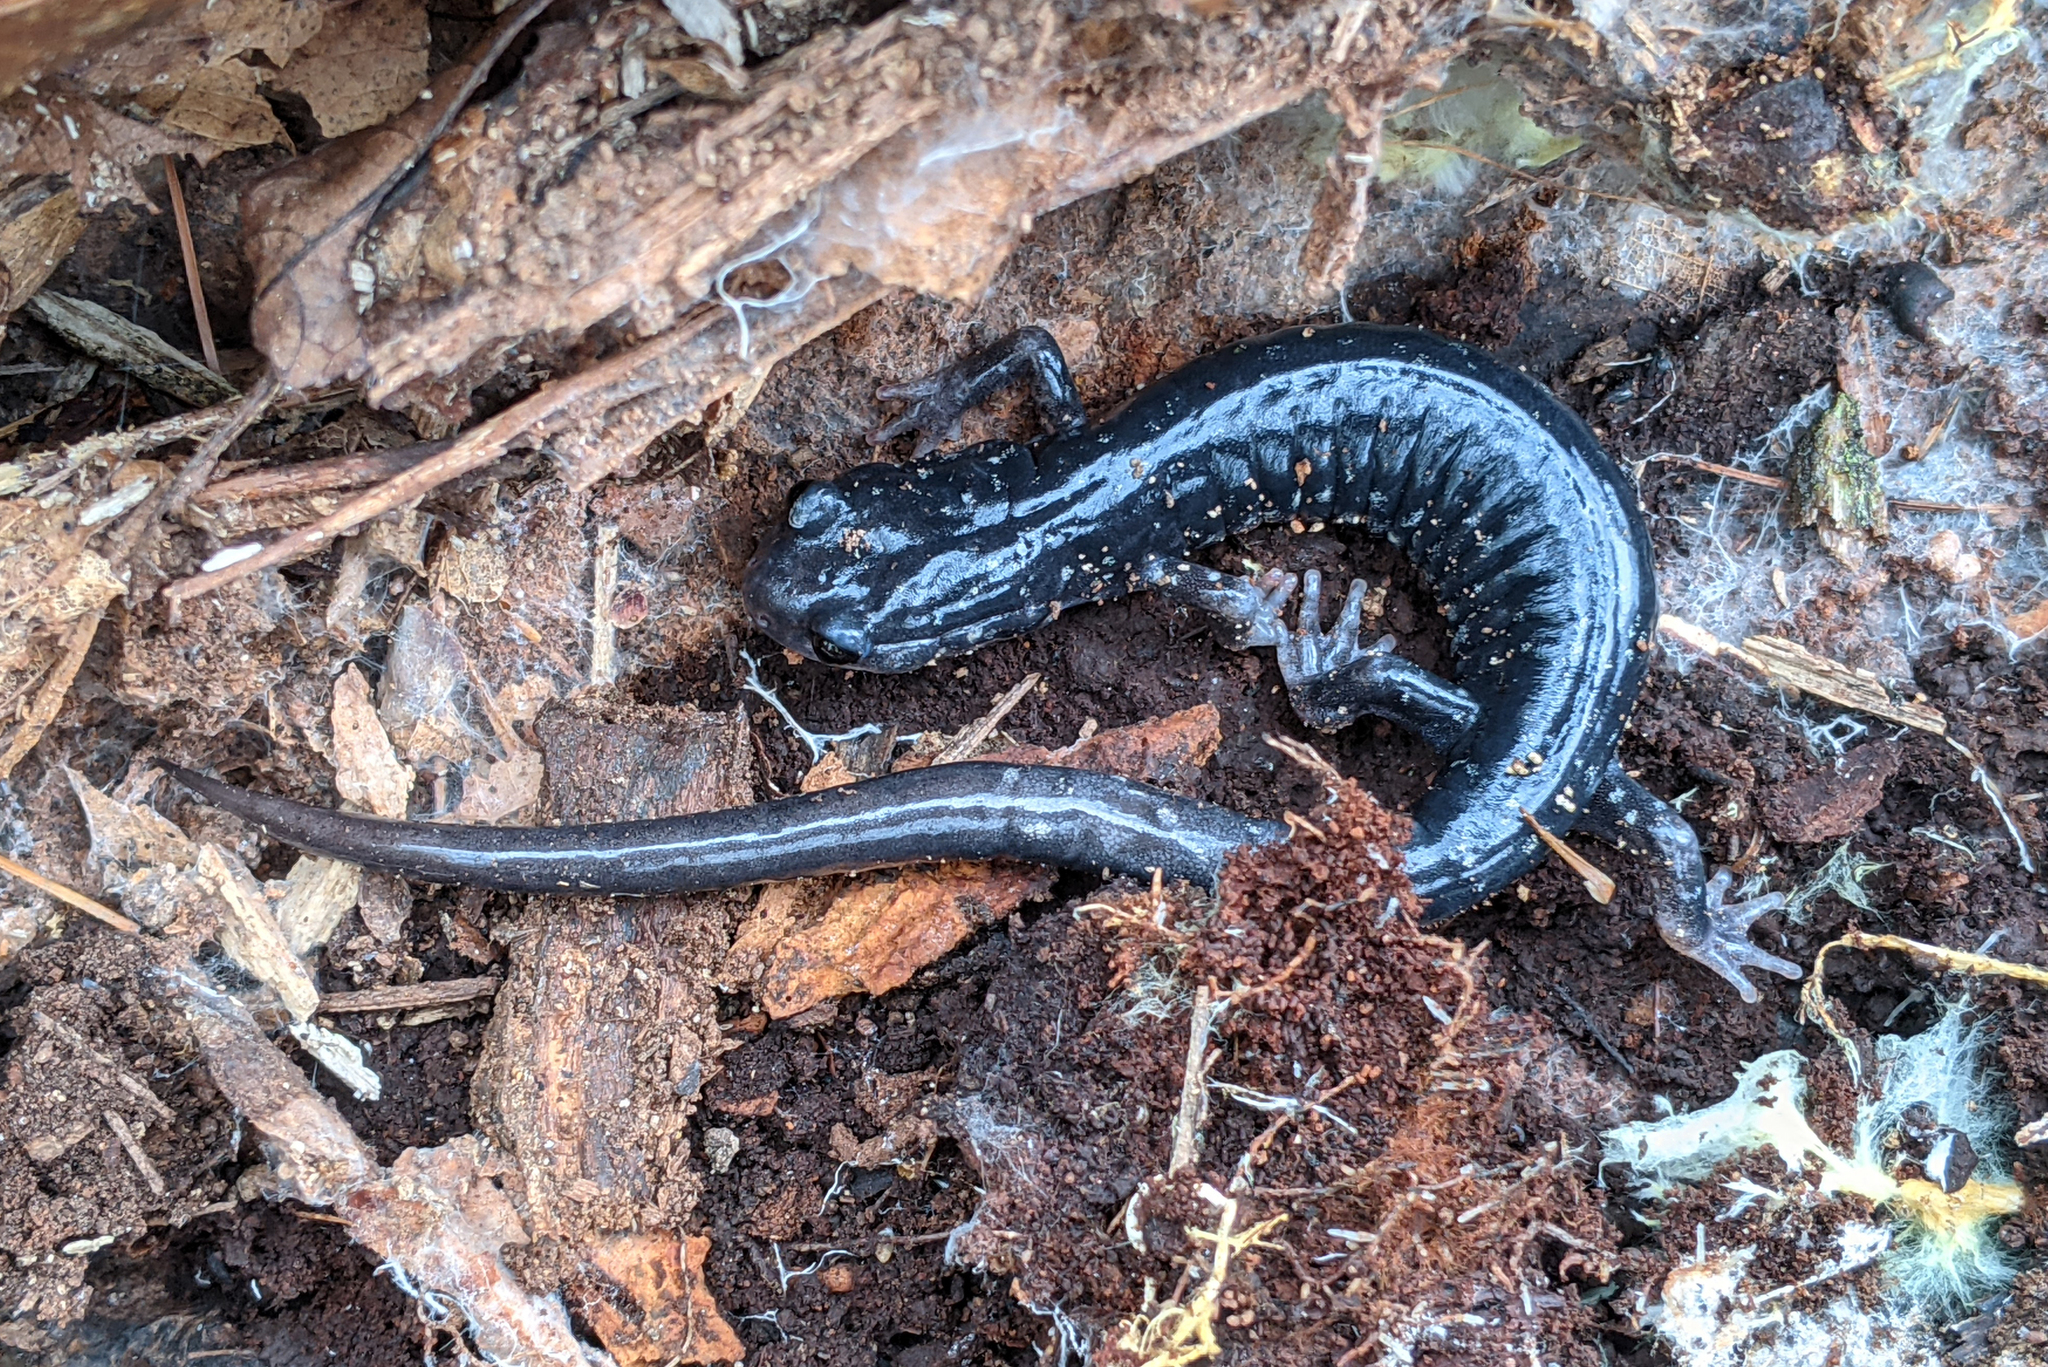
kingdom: Animalia
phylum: Chordata
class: Amphibia
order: Caudata
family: Plethodontidae
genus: Plethodon
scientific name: Plethodon glutinosus
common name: Northern slimy salamander
